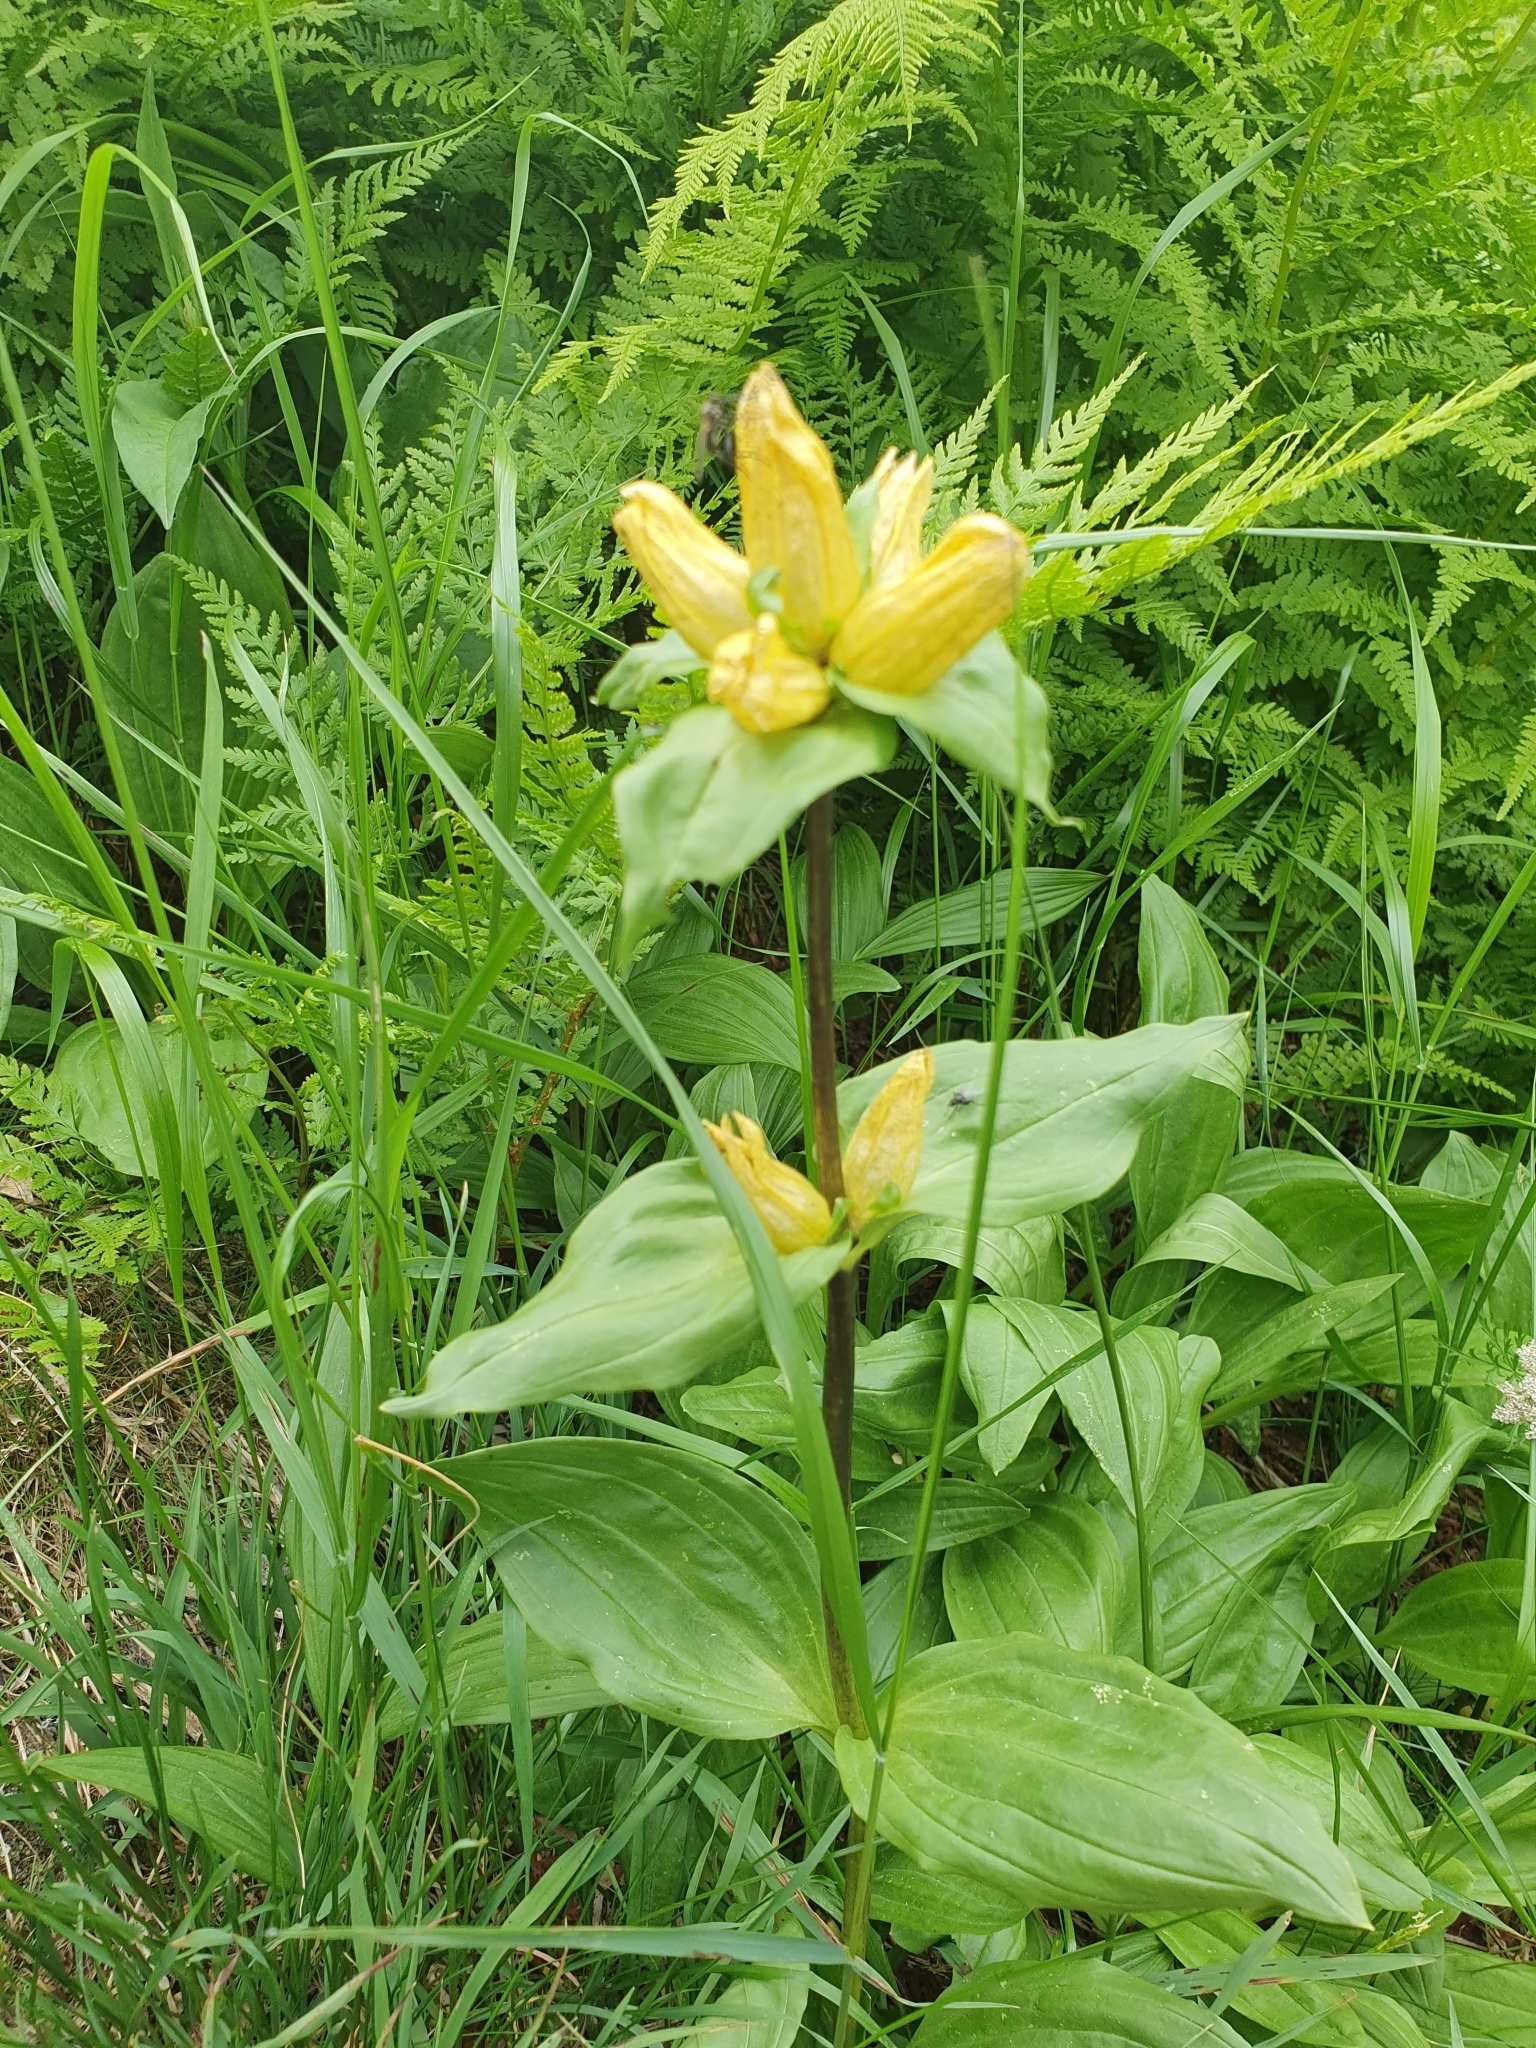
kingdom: Plantae
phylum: Tracheophyta
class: Magnoliopsida
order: Gentianales
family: Gentianaceae
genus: Gentiana
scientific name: Gentiana punctata
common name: Spotted gentian
